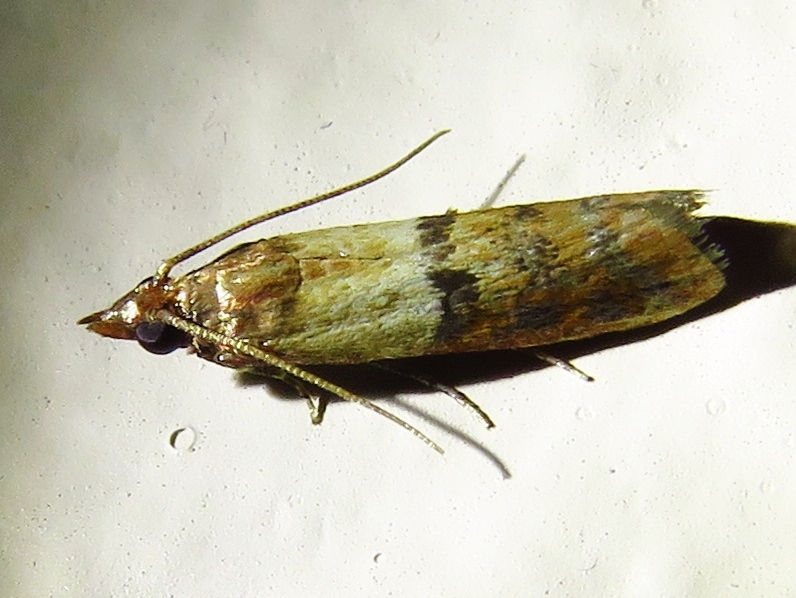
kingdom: Animalia
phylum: Arthropoda
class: Insecta
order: Lepidoptera
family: Pyralidae
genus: Plodia
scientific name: Plodia interpunctella
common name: Indian meal moth
